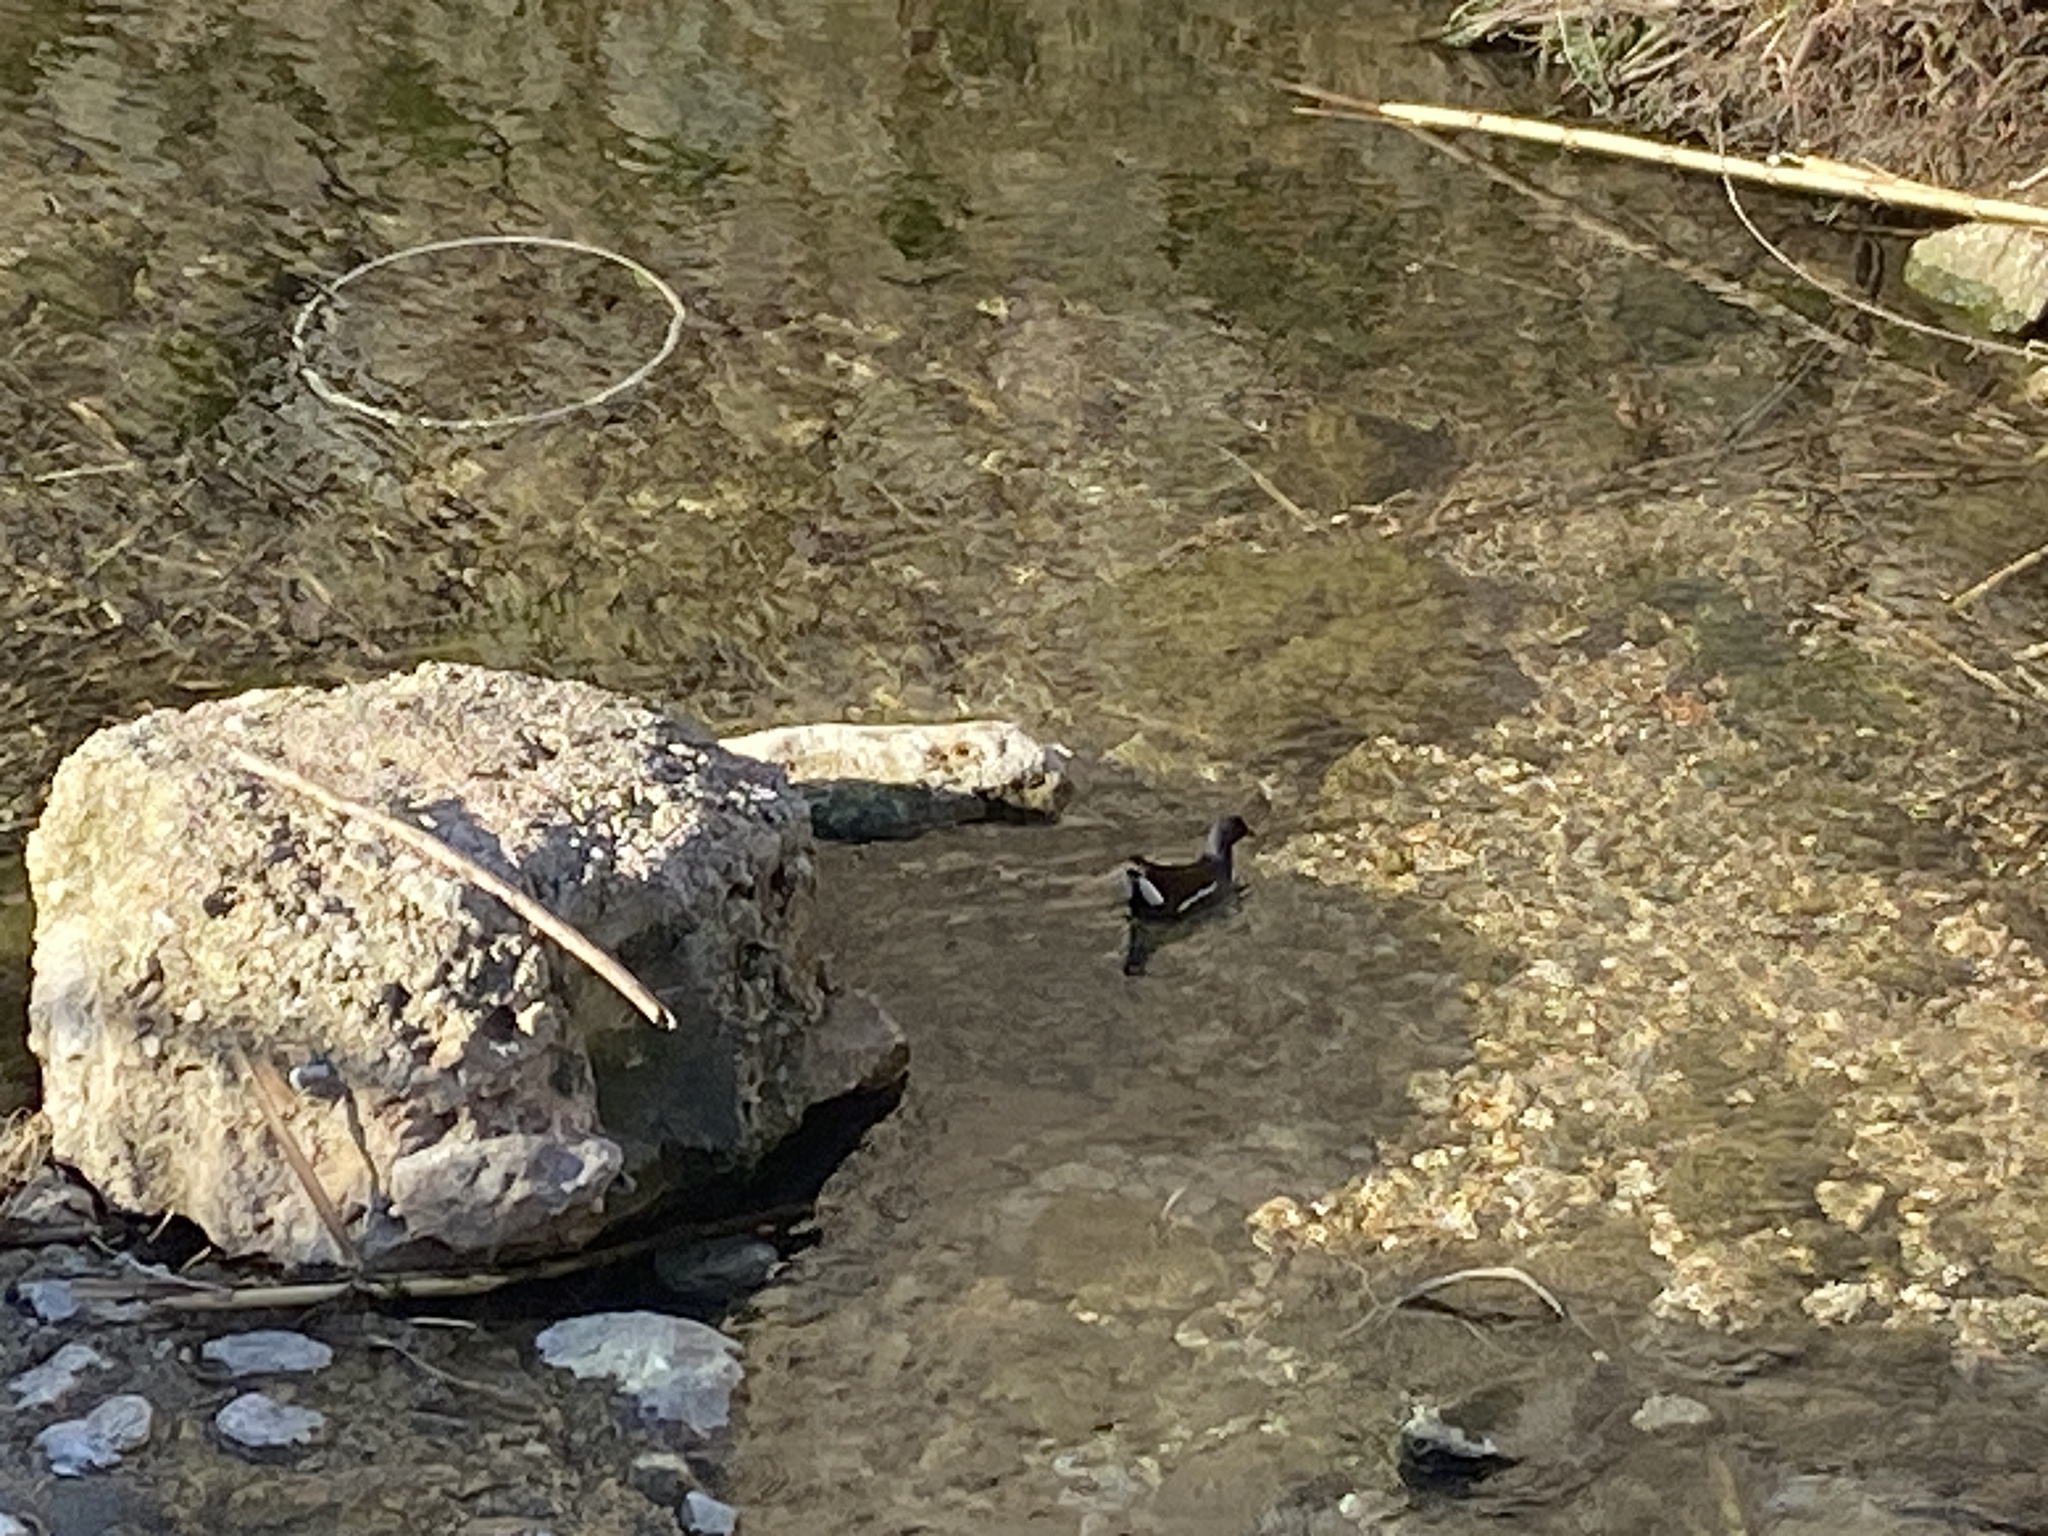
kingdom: Animalia
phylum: Chordata
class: Aves
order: Gruiformes
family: Rallidae
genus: Gallinula
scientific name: Gallinula chloropus
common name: Common moorhen
